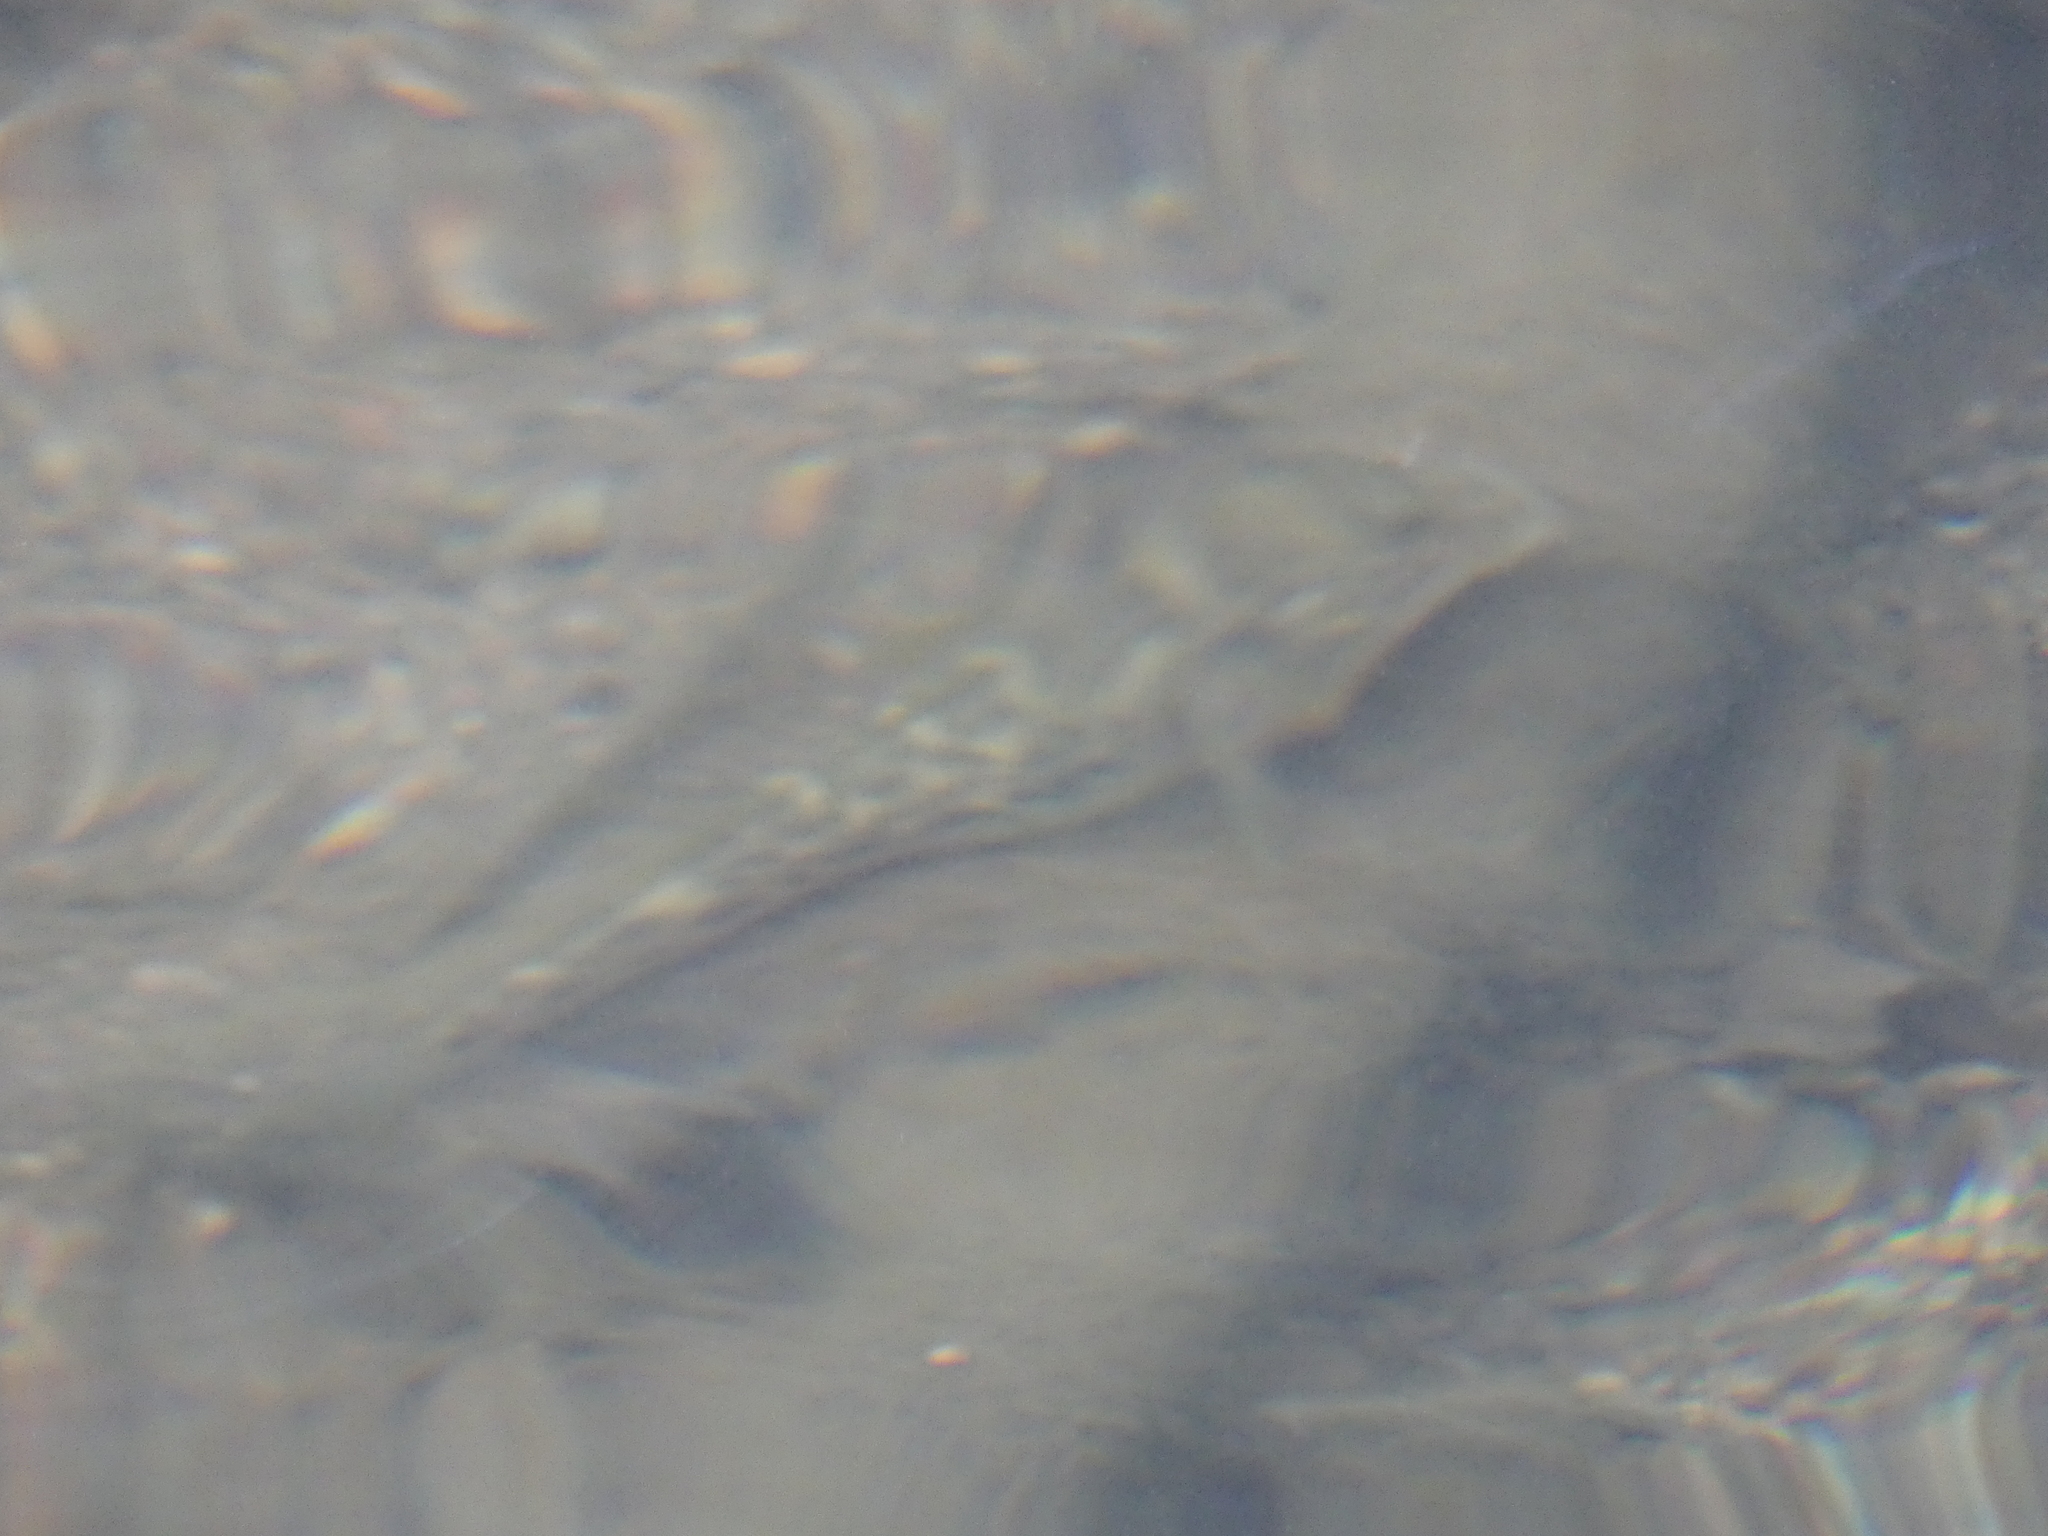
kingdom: Animalia
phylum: Chordata
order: Perciformes
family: Gobiidae
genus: Awaous
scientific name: Awaous guamensis
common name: Scribbled goby
